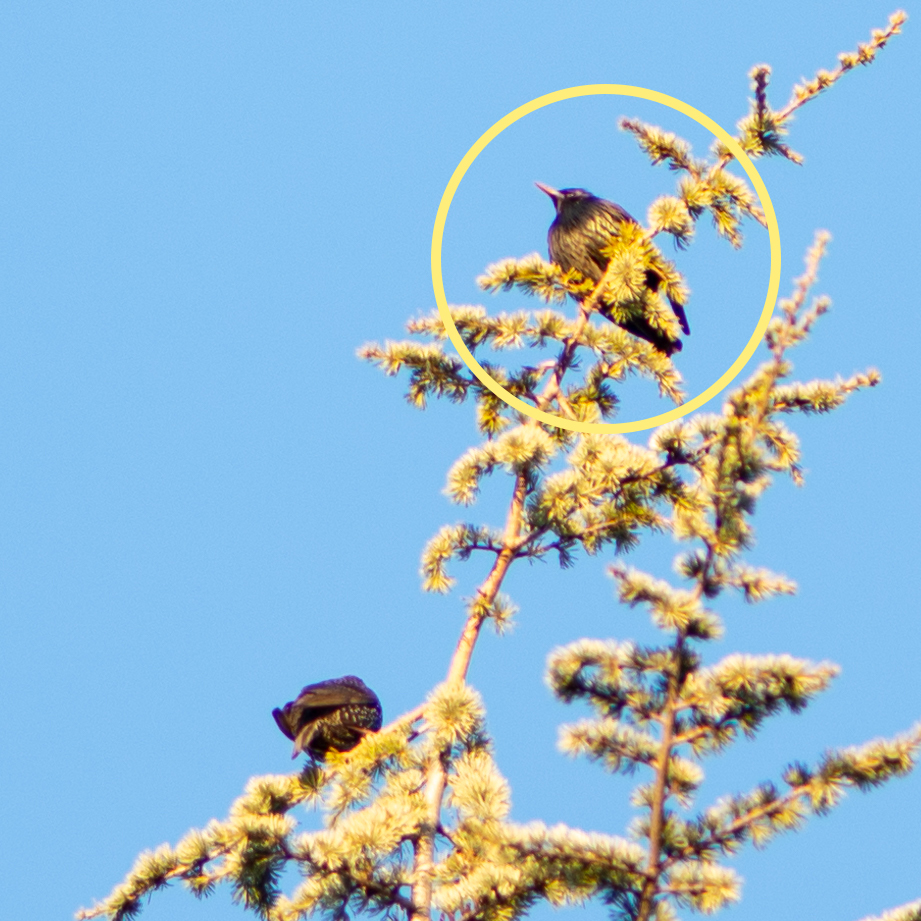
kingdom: Animalia
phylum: Chordata
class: Aves
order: Passeriformes
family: Sturnidae
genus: Sturnus
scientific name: Sturnus unicolor
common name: Spotless starling
